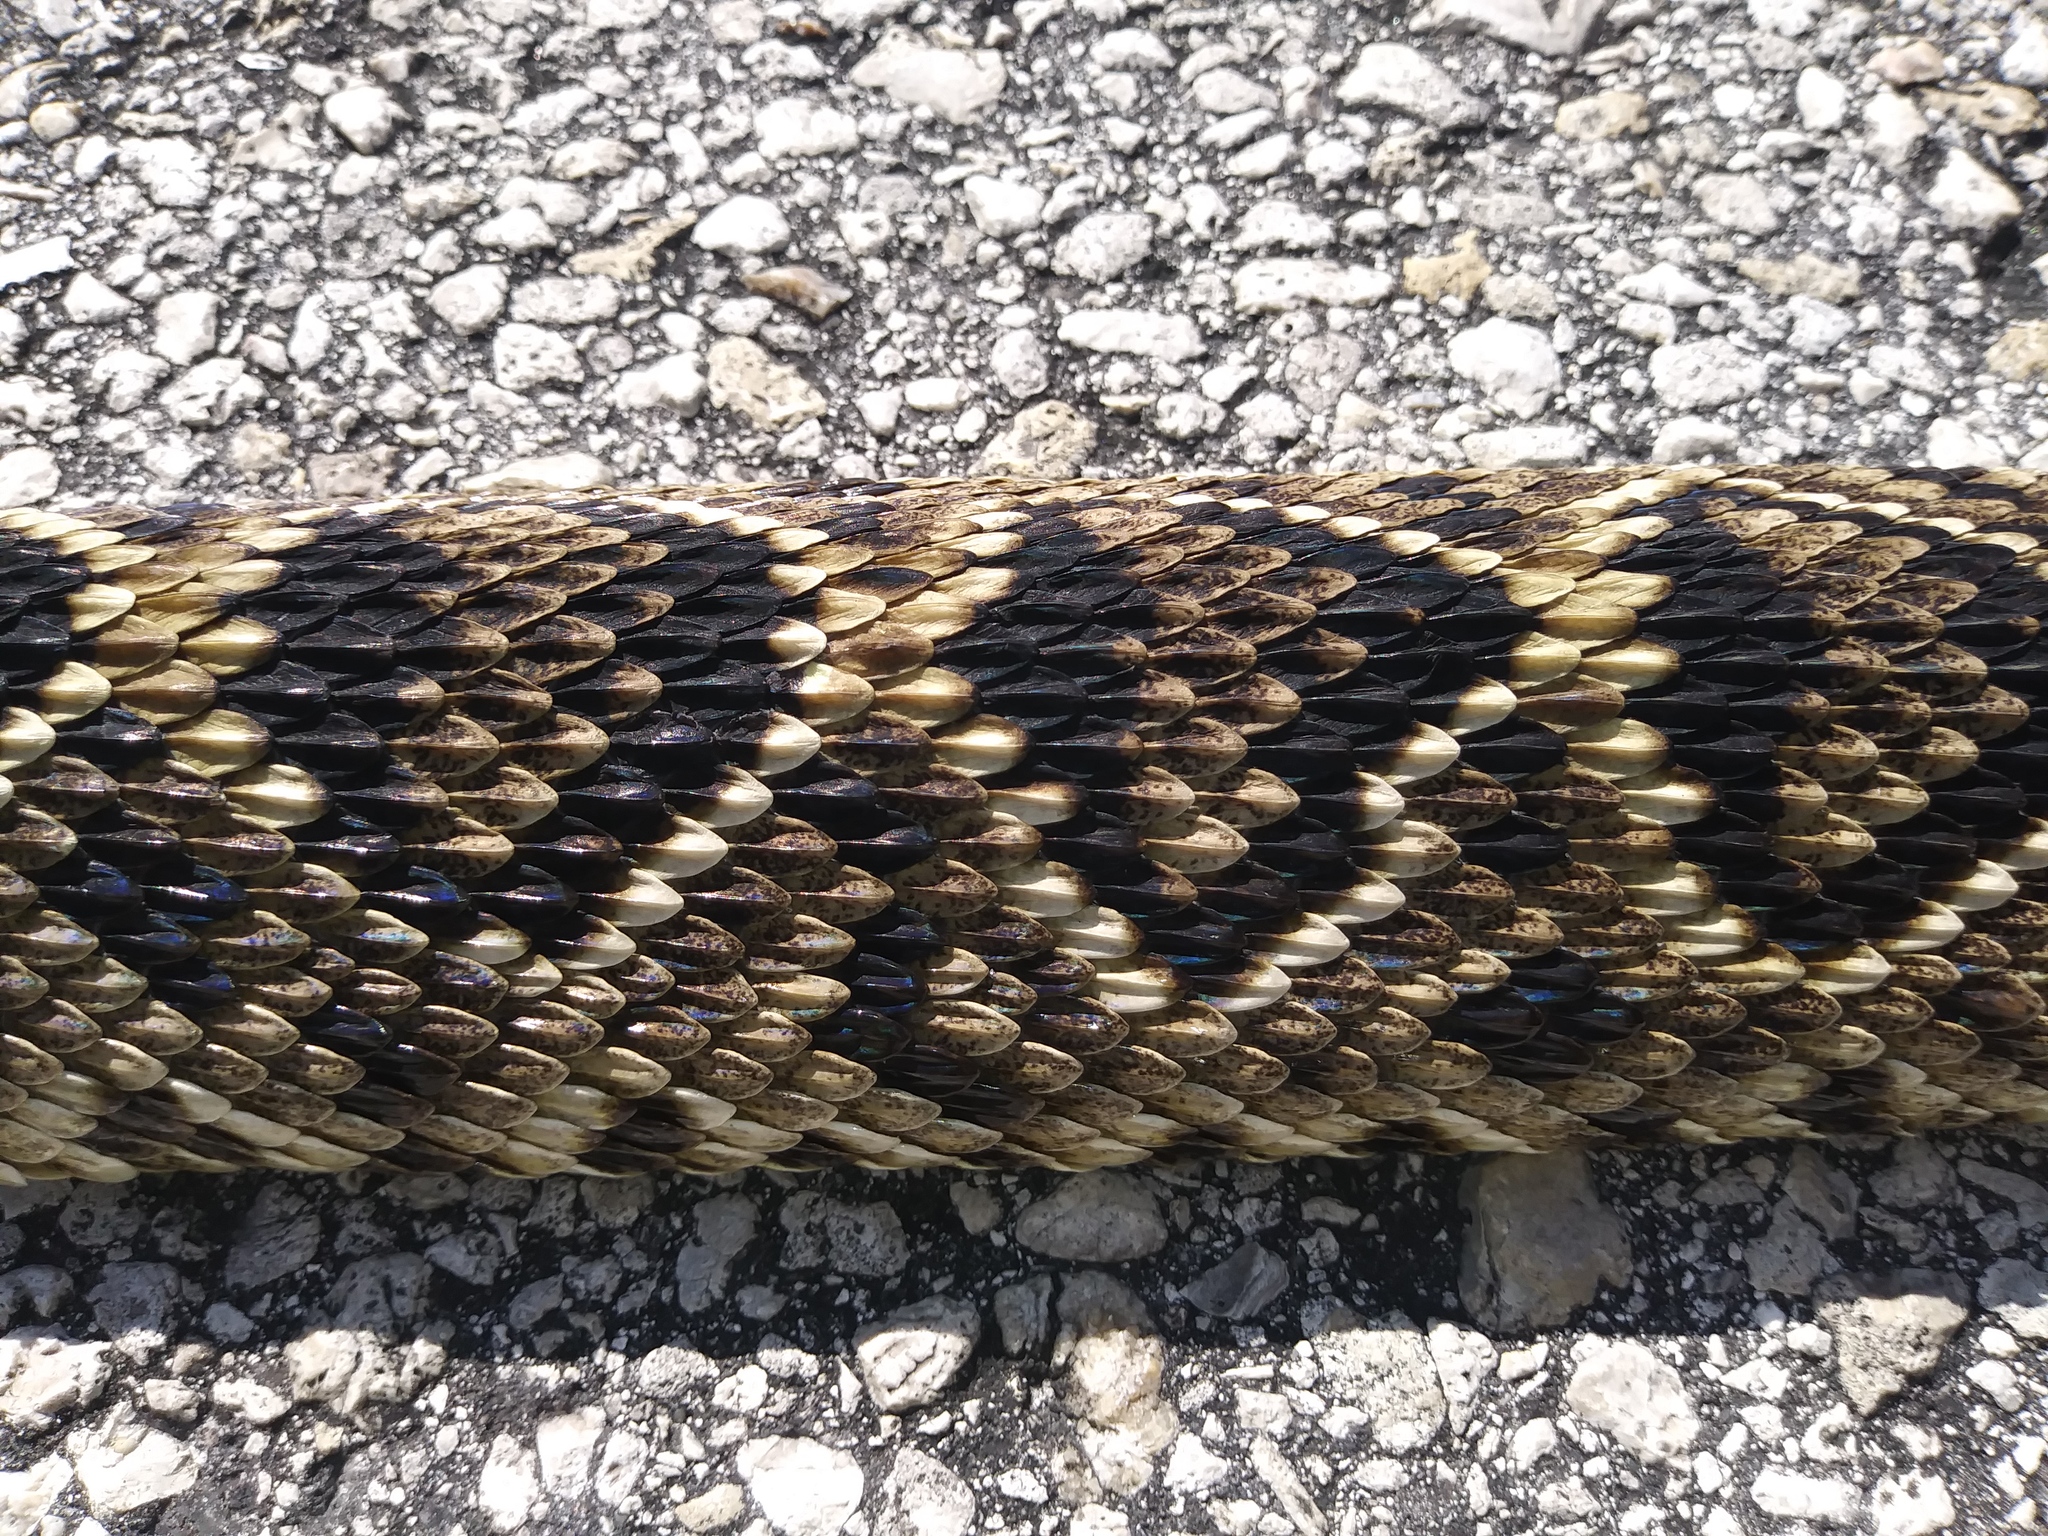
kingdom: Animalia
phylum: Chordata
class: Squamata
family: Viperidae
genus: Crotalus
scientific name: Crotalus adamanteus
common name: Eastern diamondback rattlesnake
